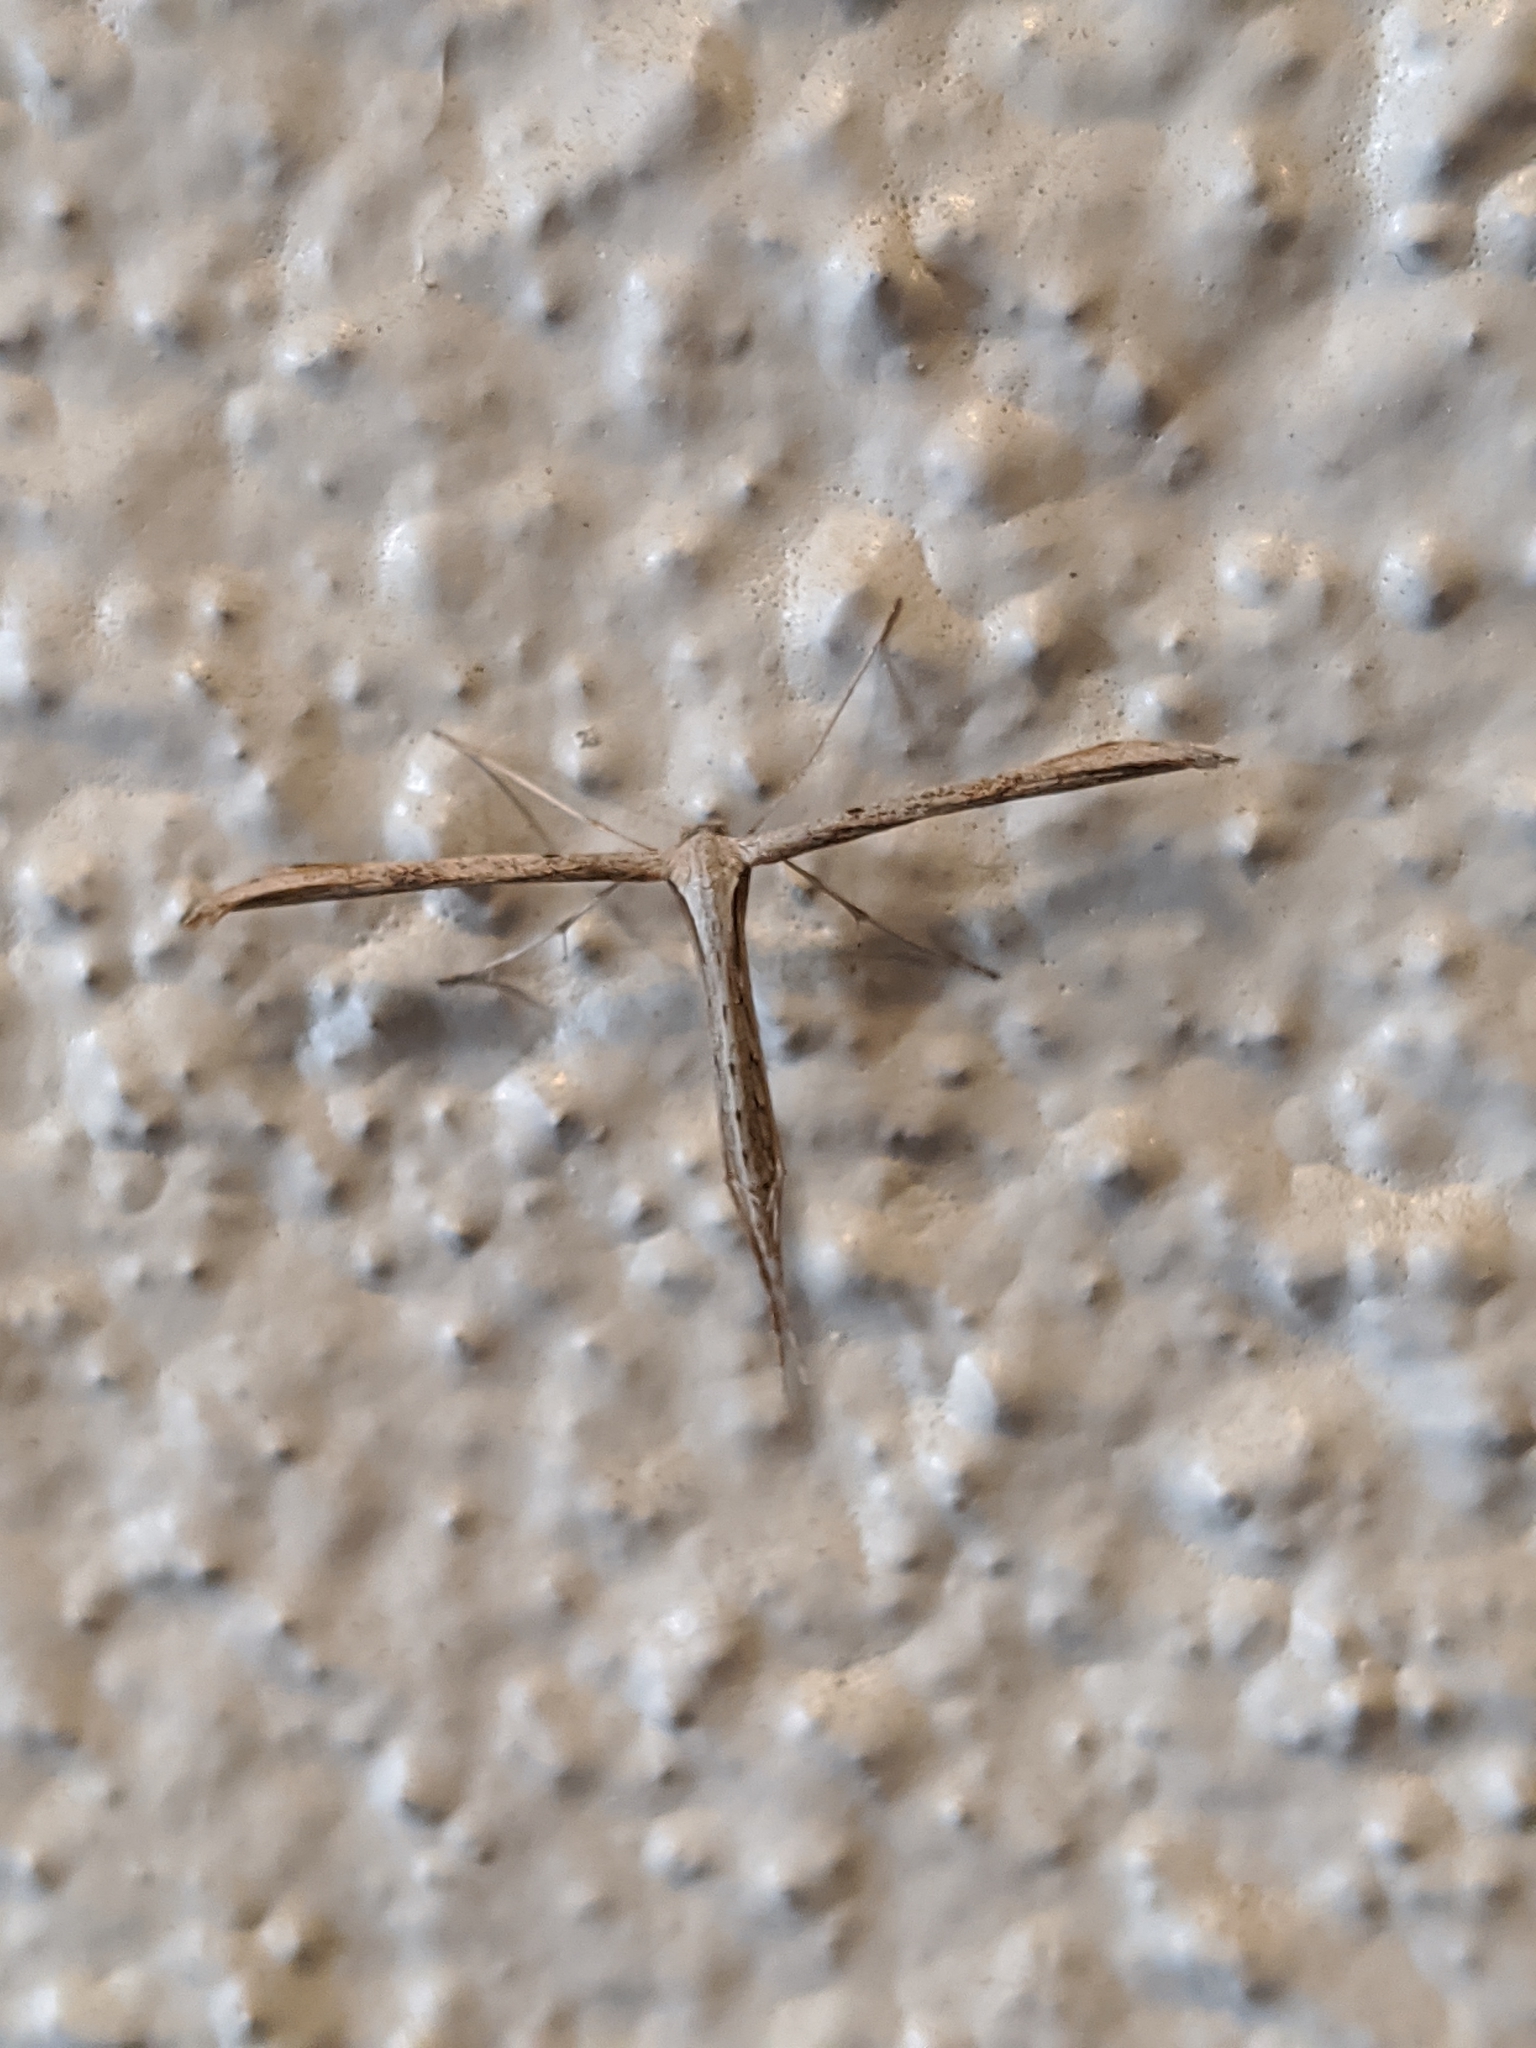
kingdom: Animalia
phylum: Arthropoda
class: Insecta
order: Lepidoptera
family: Pterophoridae
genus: Emmelina
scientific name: Emmelina monodactyla
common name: Common plume
